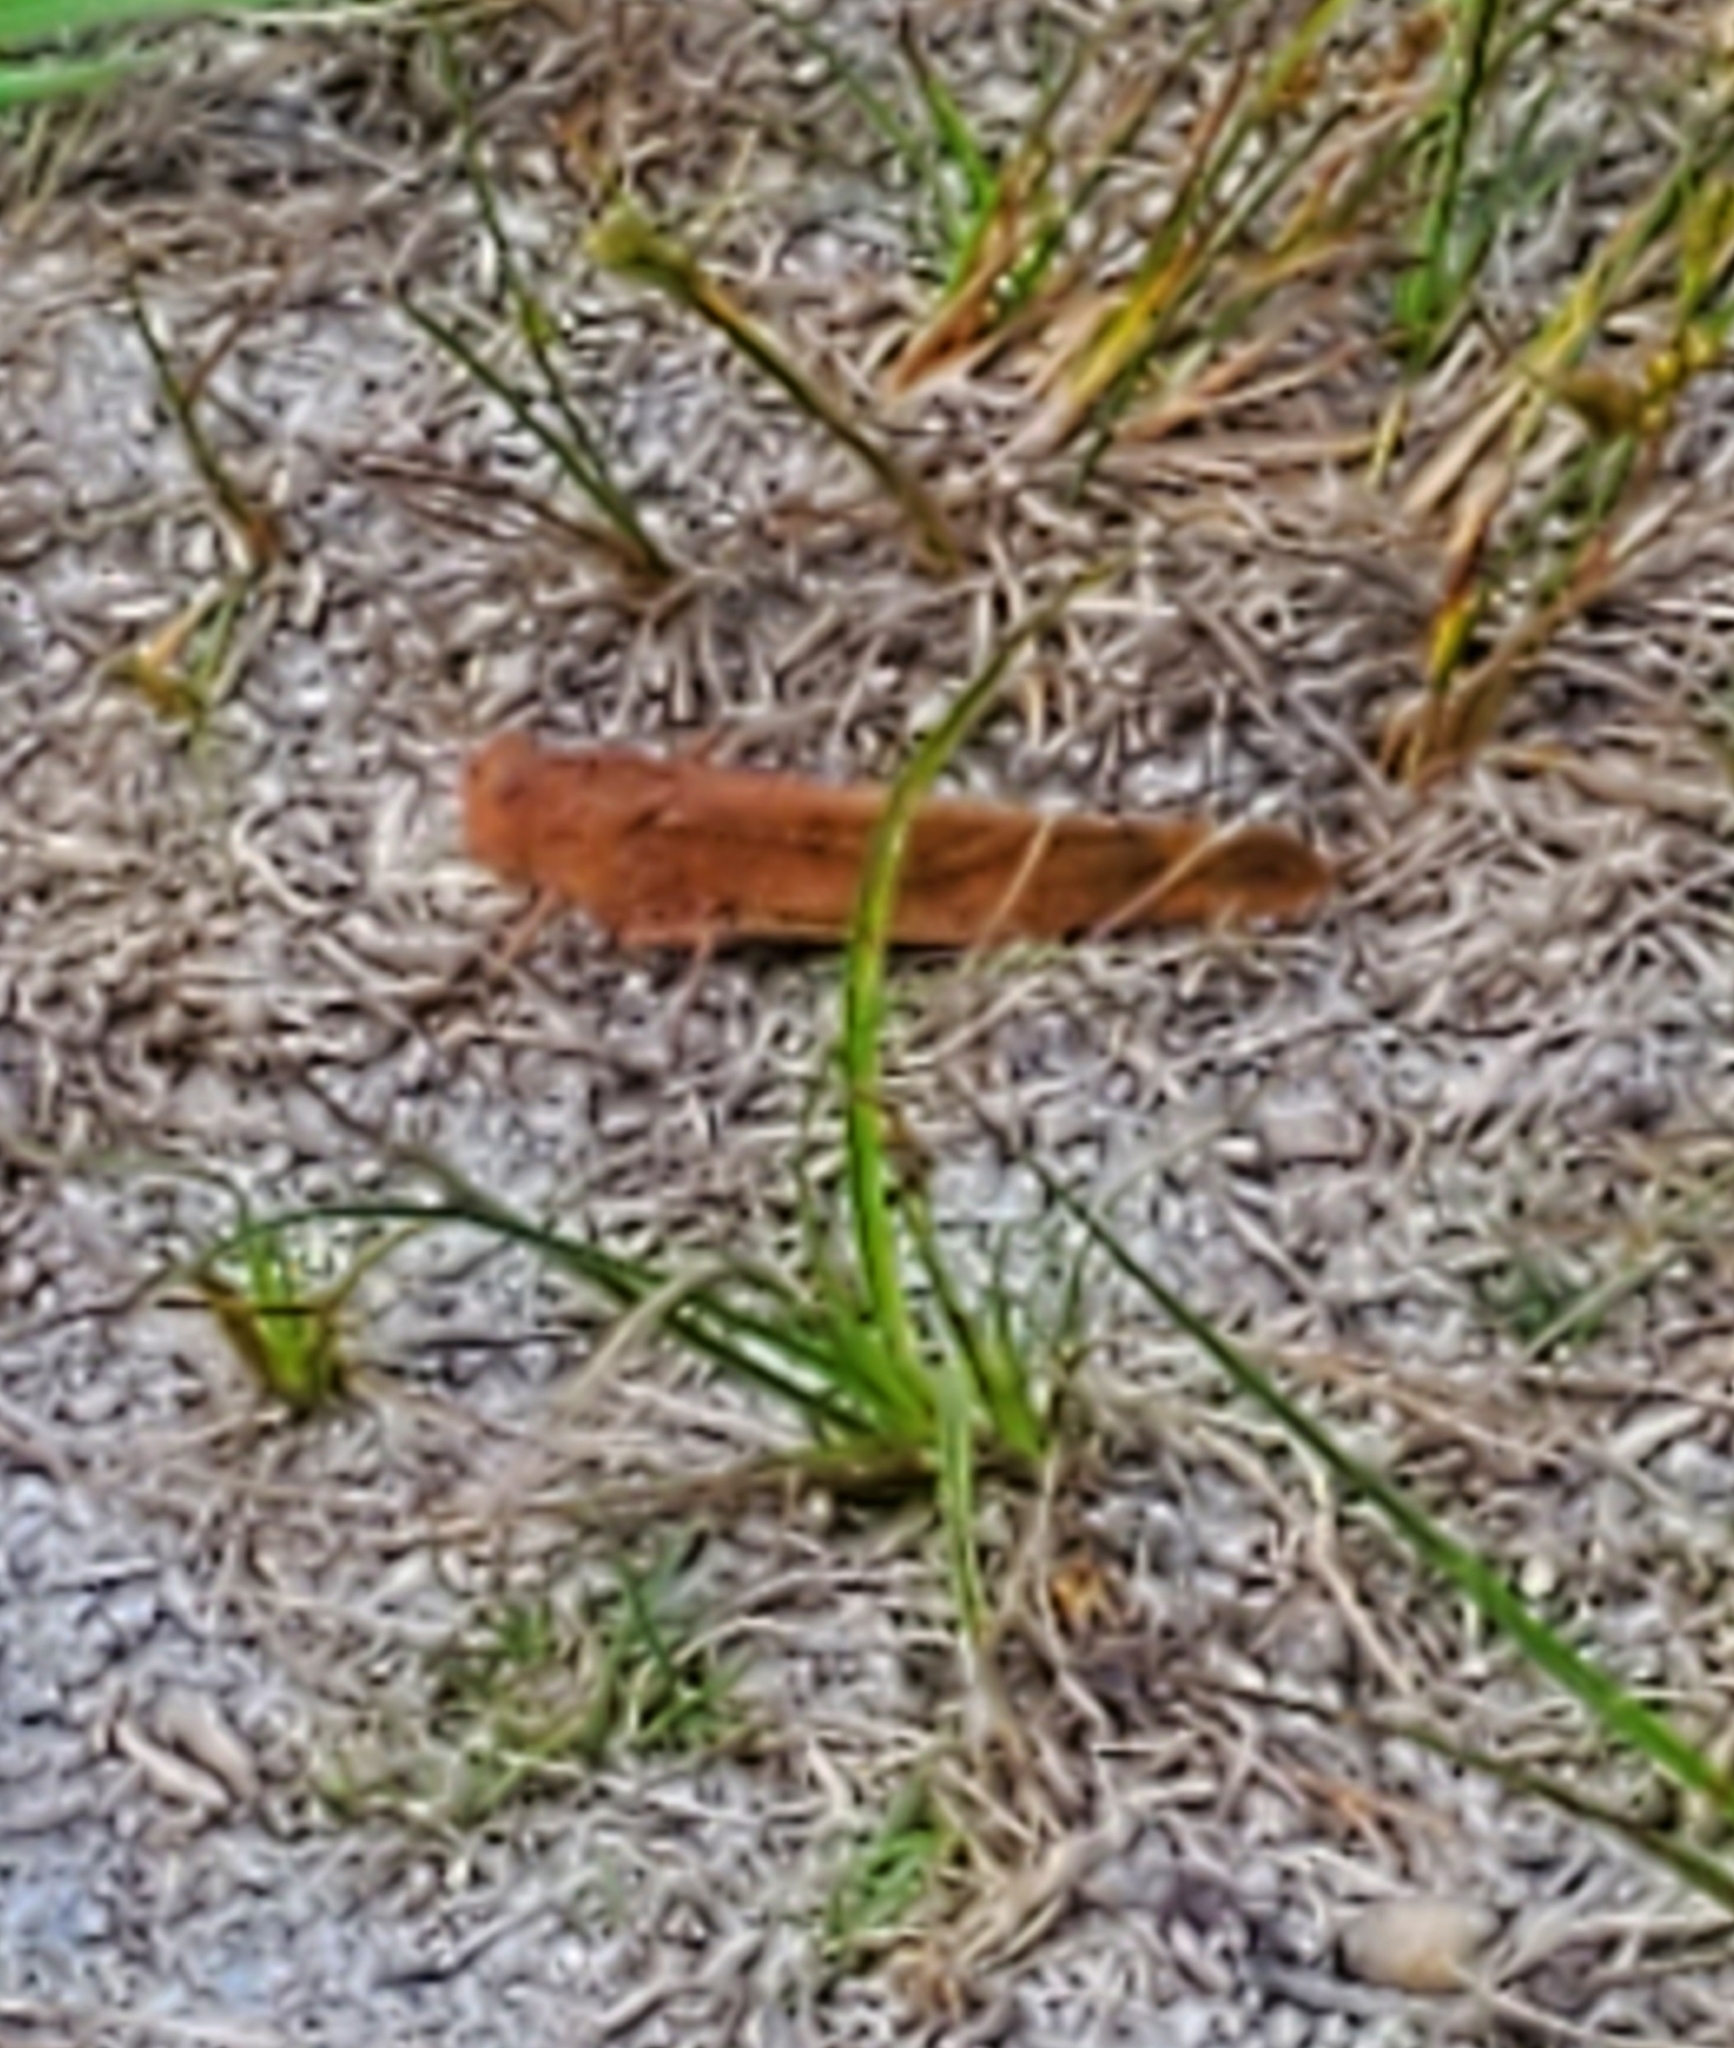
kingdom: Animalia
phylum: Arthropoda
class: Insecta
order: Orthoptera
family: Acrididae
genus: Dissosteira
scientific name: Dissosteira carolina
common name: Carolina grasshopper
